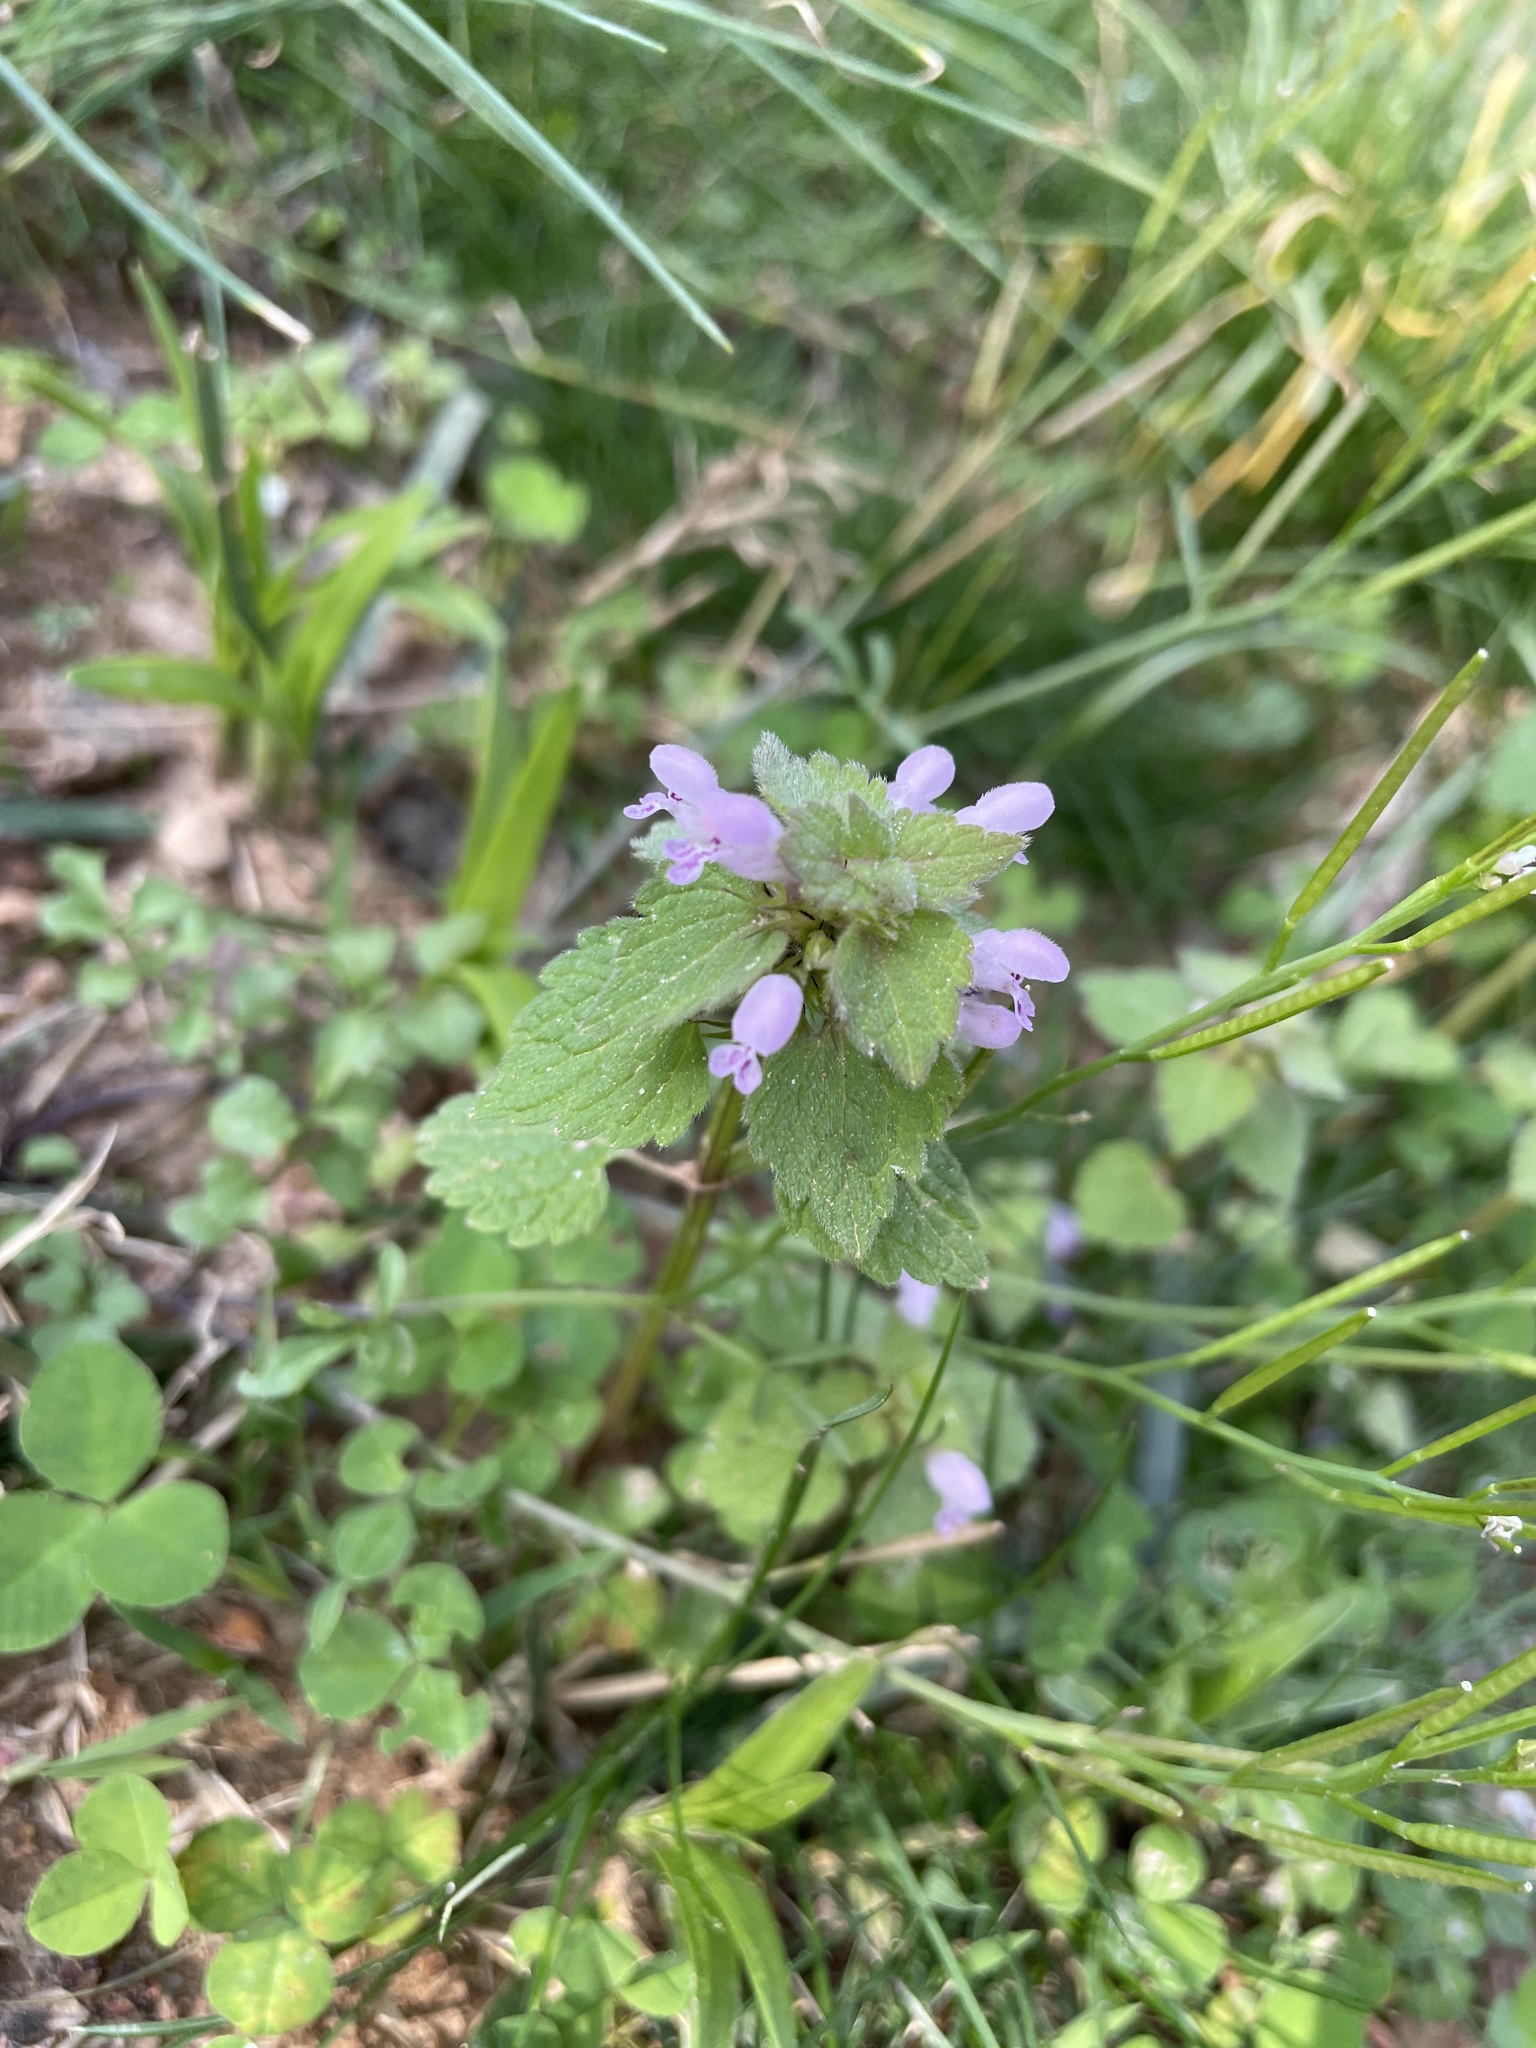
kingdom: Plantae
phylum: Tracheophyta
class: Magnoliopsida
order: Lamiales
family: Lamiaceae
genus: Lamium
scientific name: Lamium purpureum
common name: Red dead-nettle
